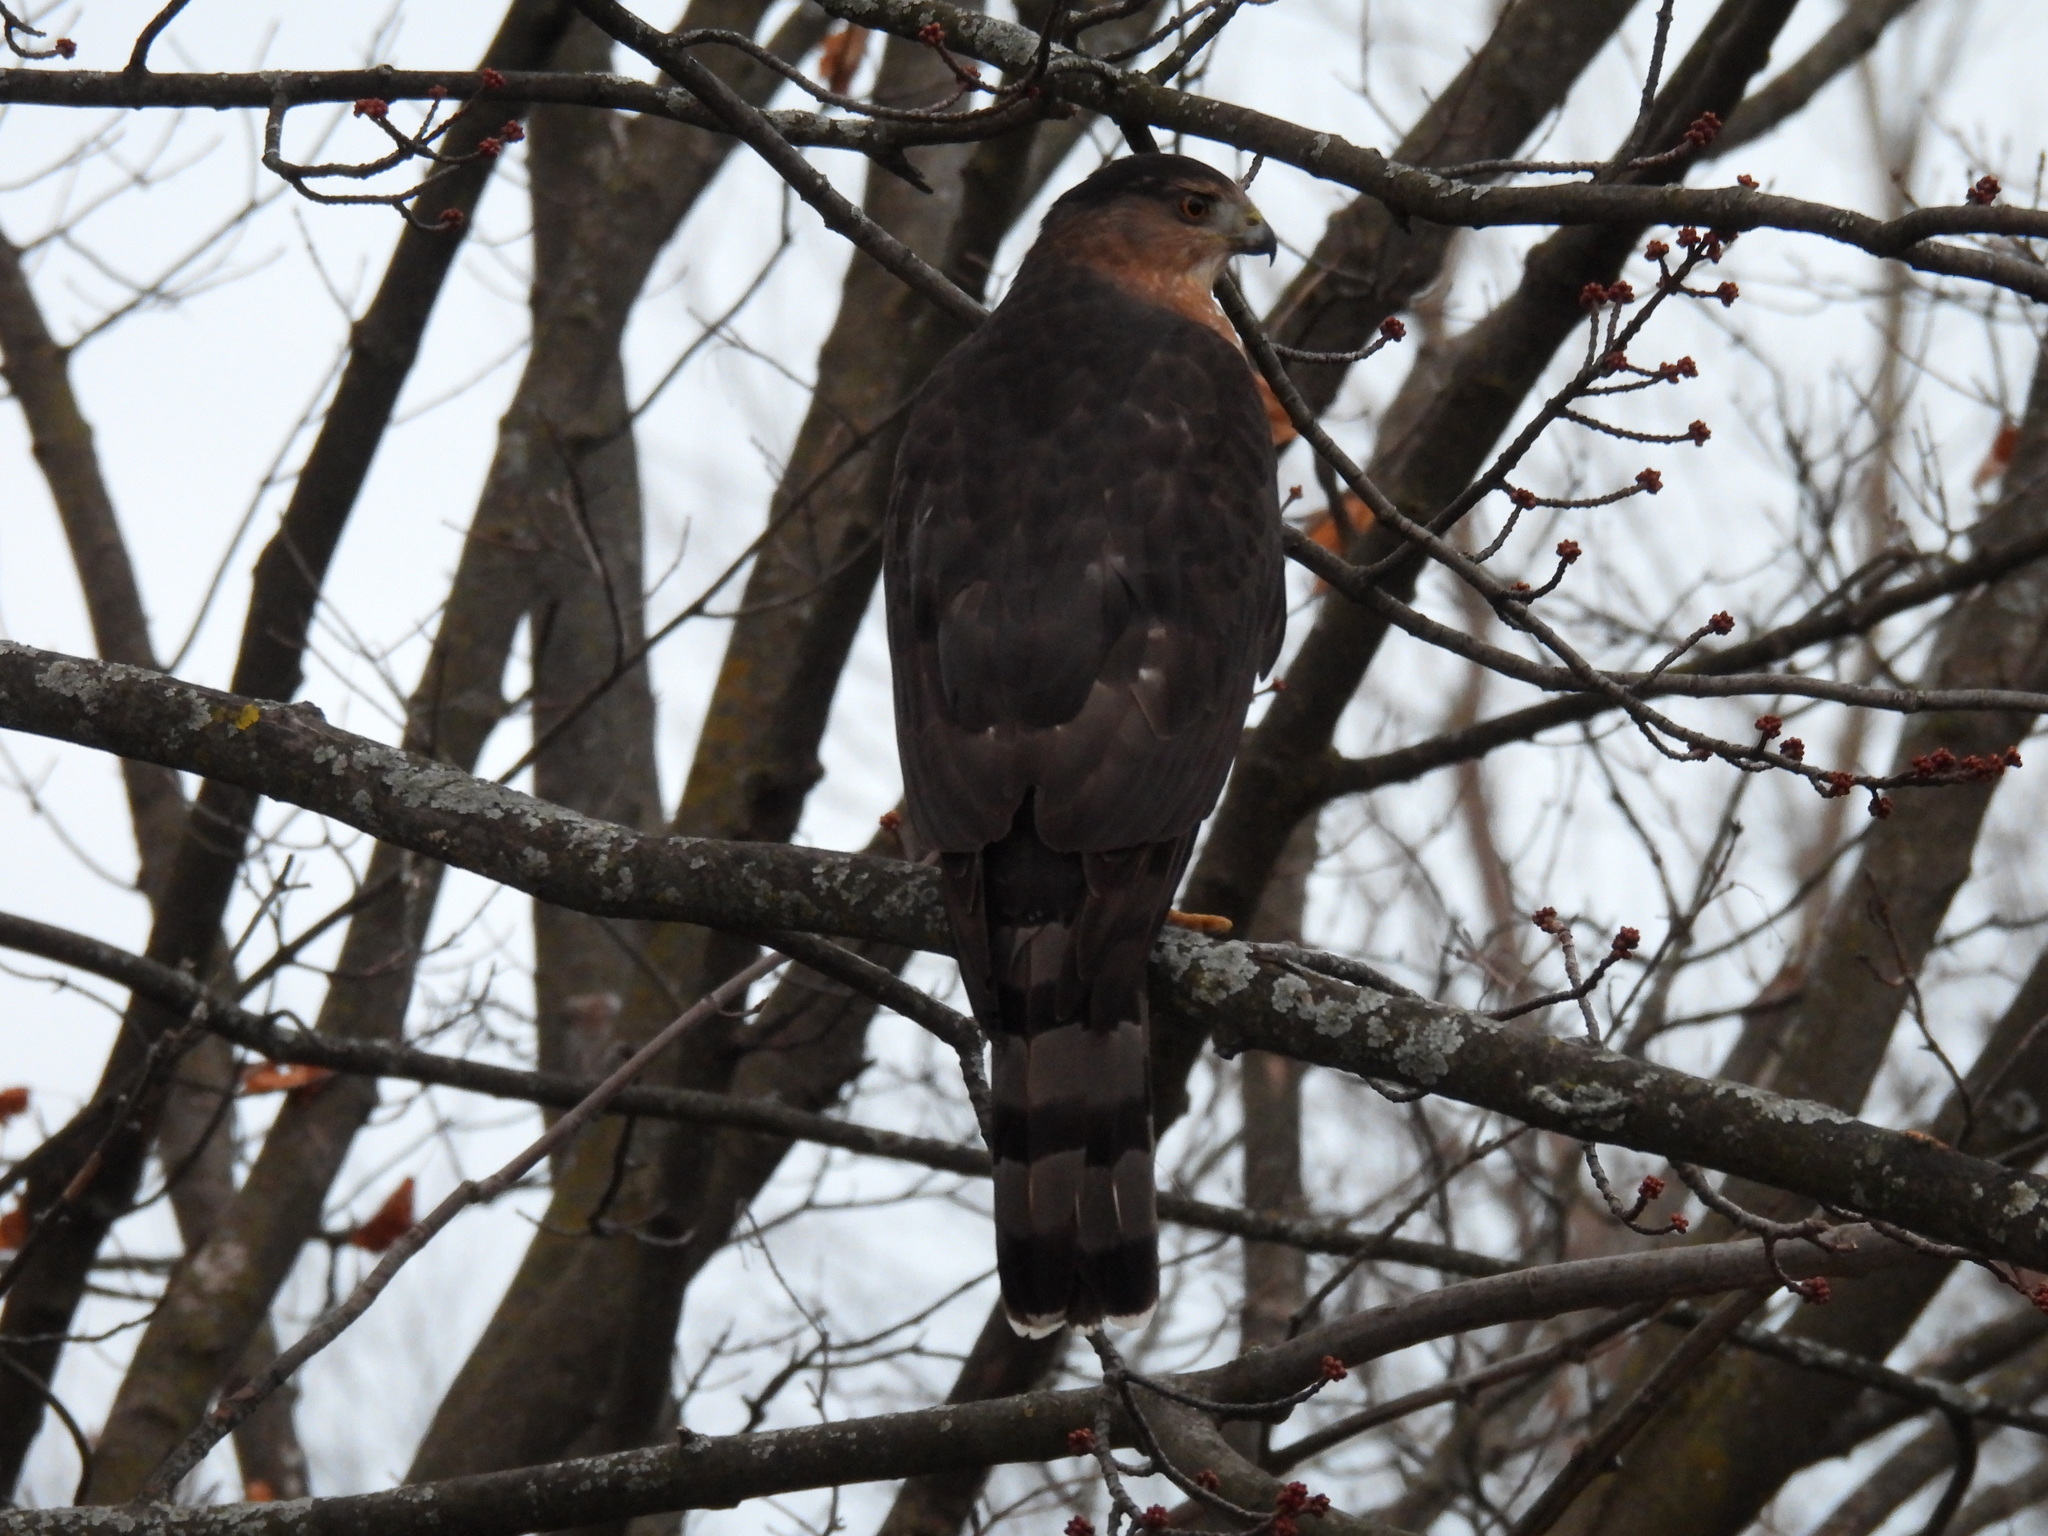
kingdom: Animalia
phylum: Chordata
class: Aves
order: Accipitriformes
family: Accipitridae
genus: Accipiter
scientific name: Accipiter cooperii
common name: Cooper's hawk
